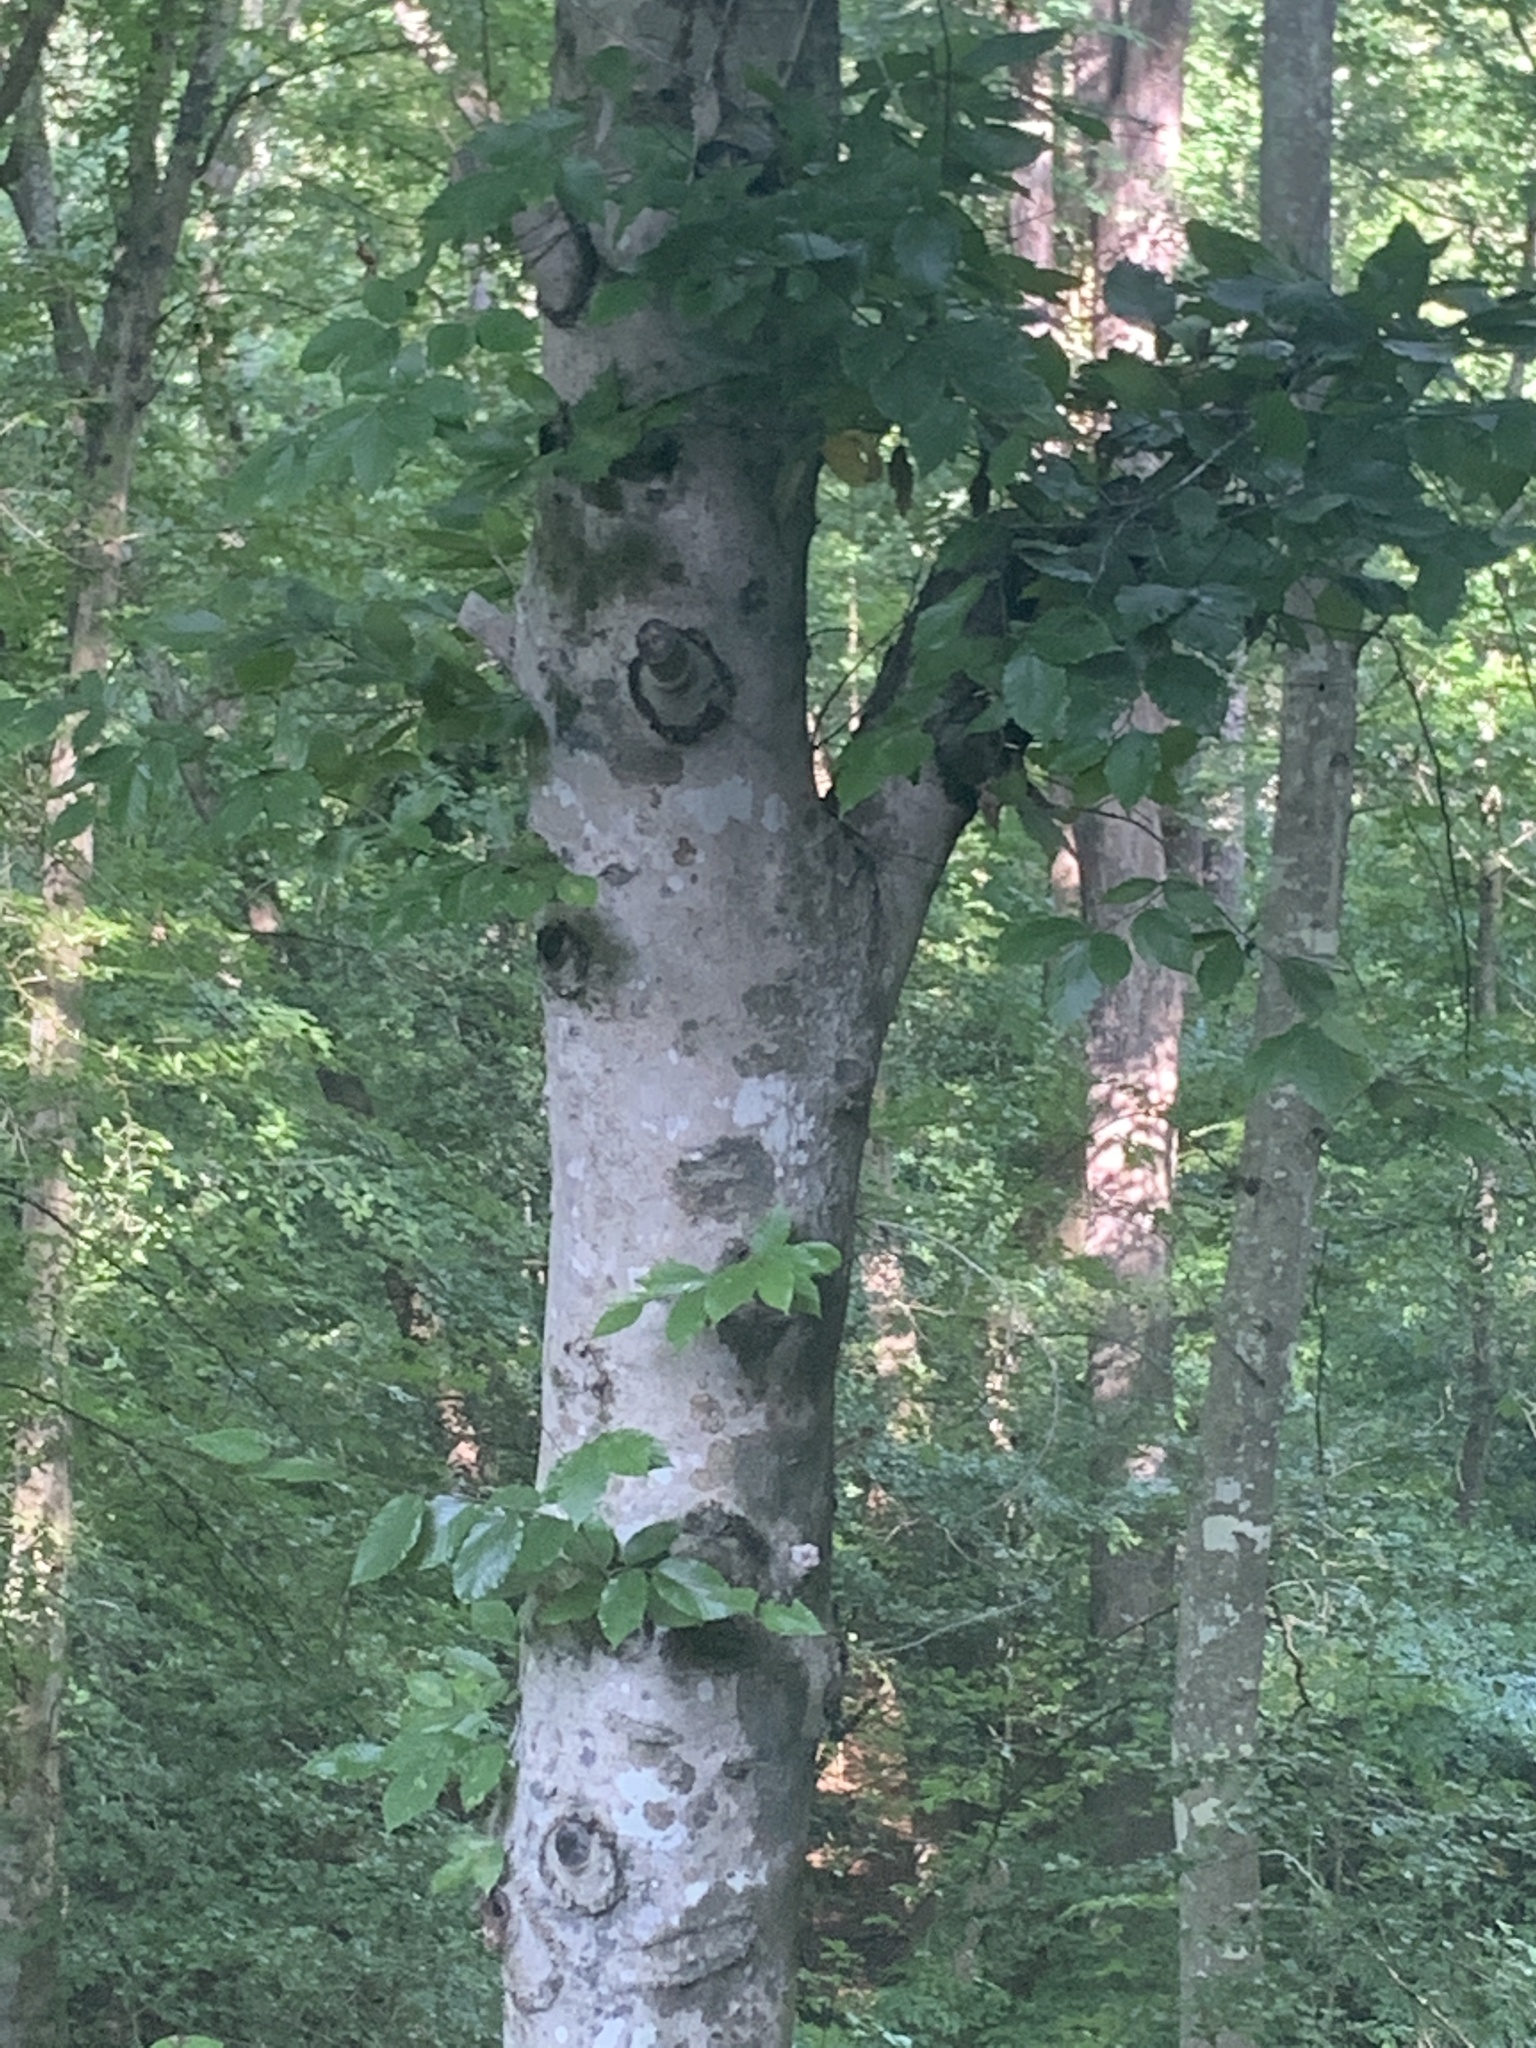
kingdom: Plantae
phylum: Tracheophyta
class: Magnoliopsida
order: Fagales
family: Fagaceae
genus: Fagus
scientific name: Fagus grandifolia
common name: American beech
